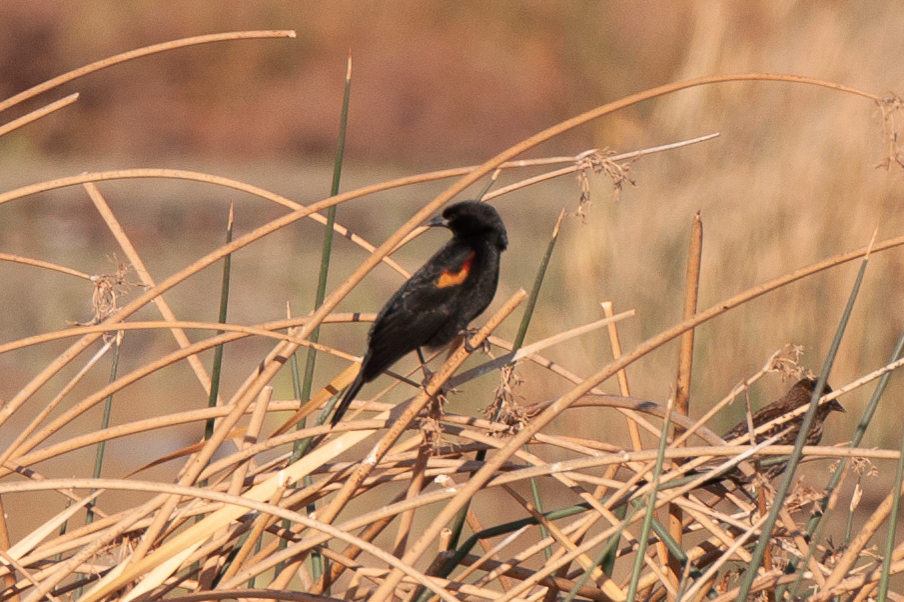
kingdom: Animalia
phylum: Chordata
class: Aves
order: Passeriformes
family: Icteridae
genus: Agelaius
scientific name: Agelaius phoeniceus
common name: Red-winged blackbird
